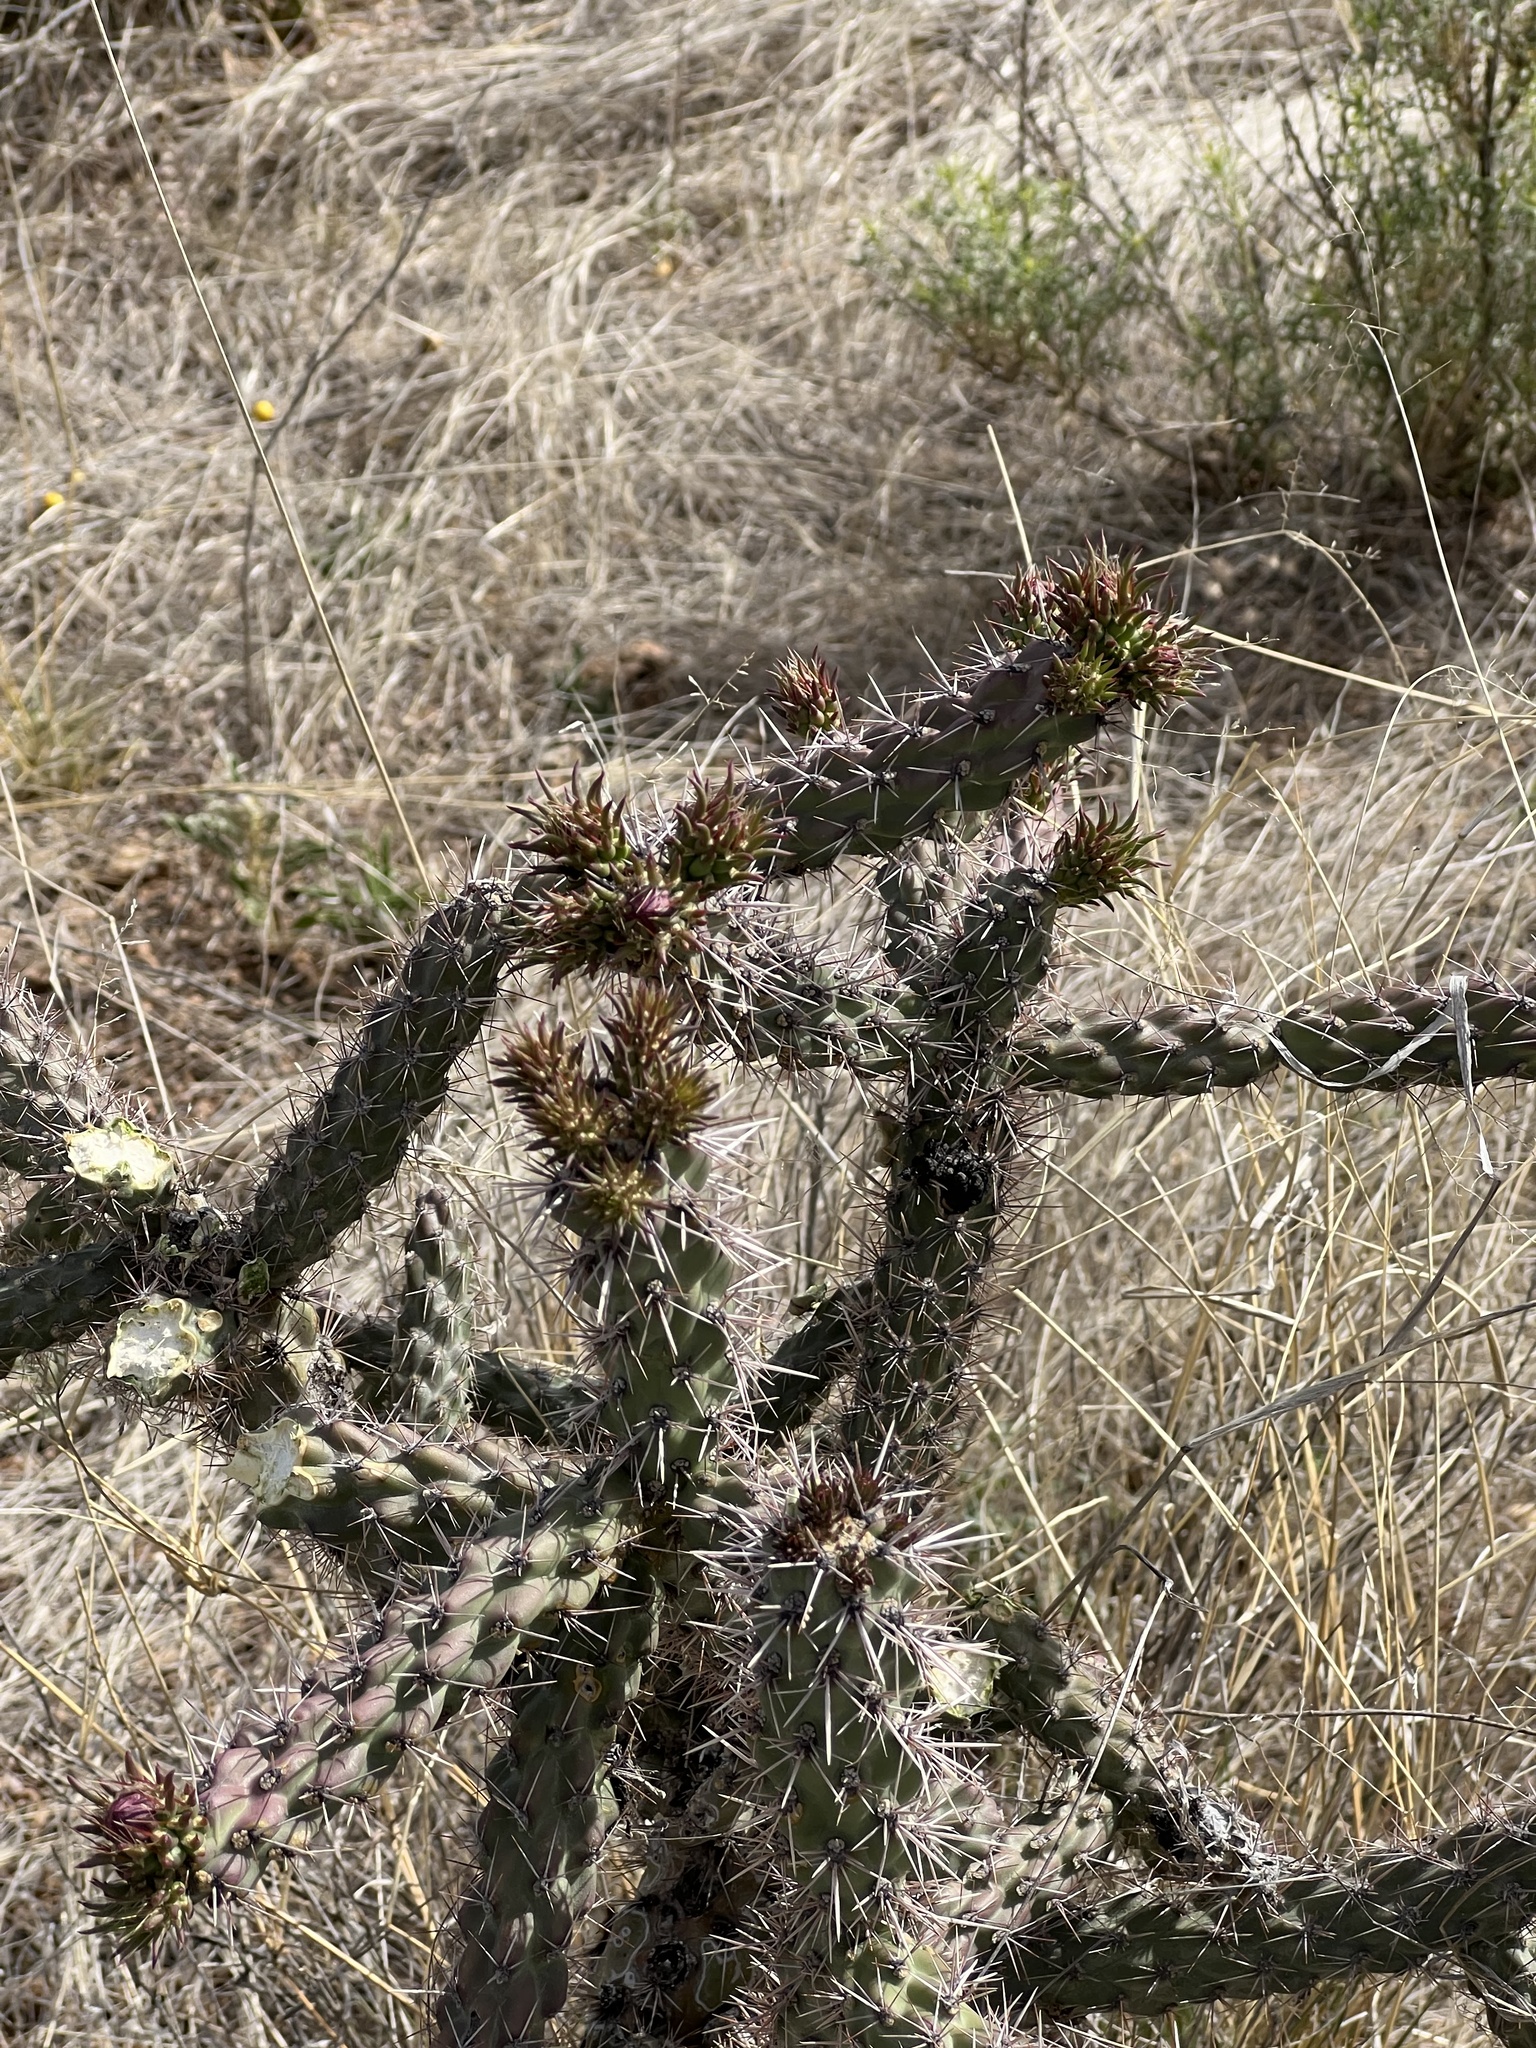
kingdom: Plantae
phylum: Tracheophyta
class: Magnoliopsida
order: Caryophyllales
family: Cactaceae
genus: Cylindropuntia
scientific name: Cylindropuntia imbricata
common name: Candelabrum cactus
